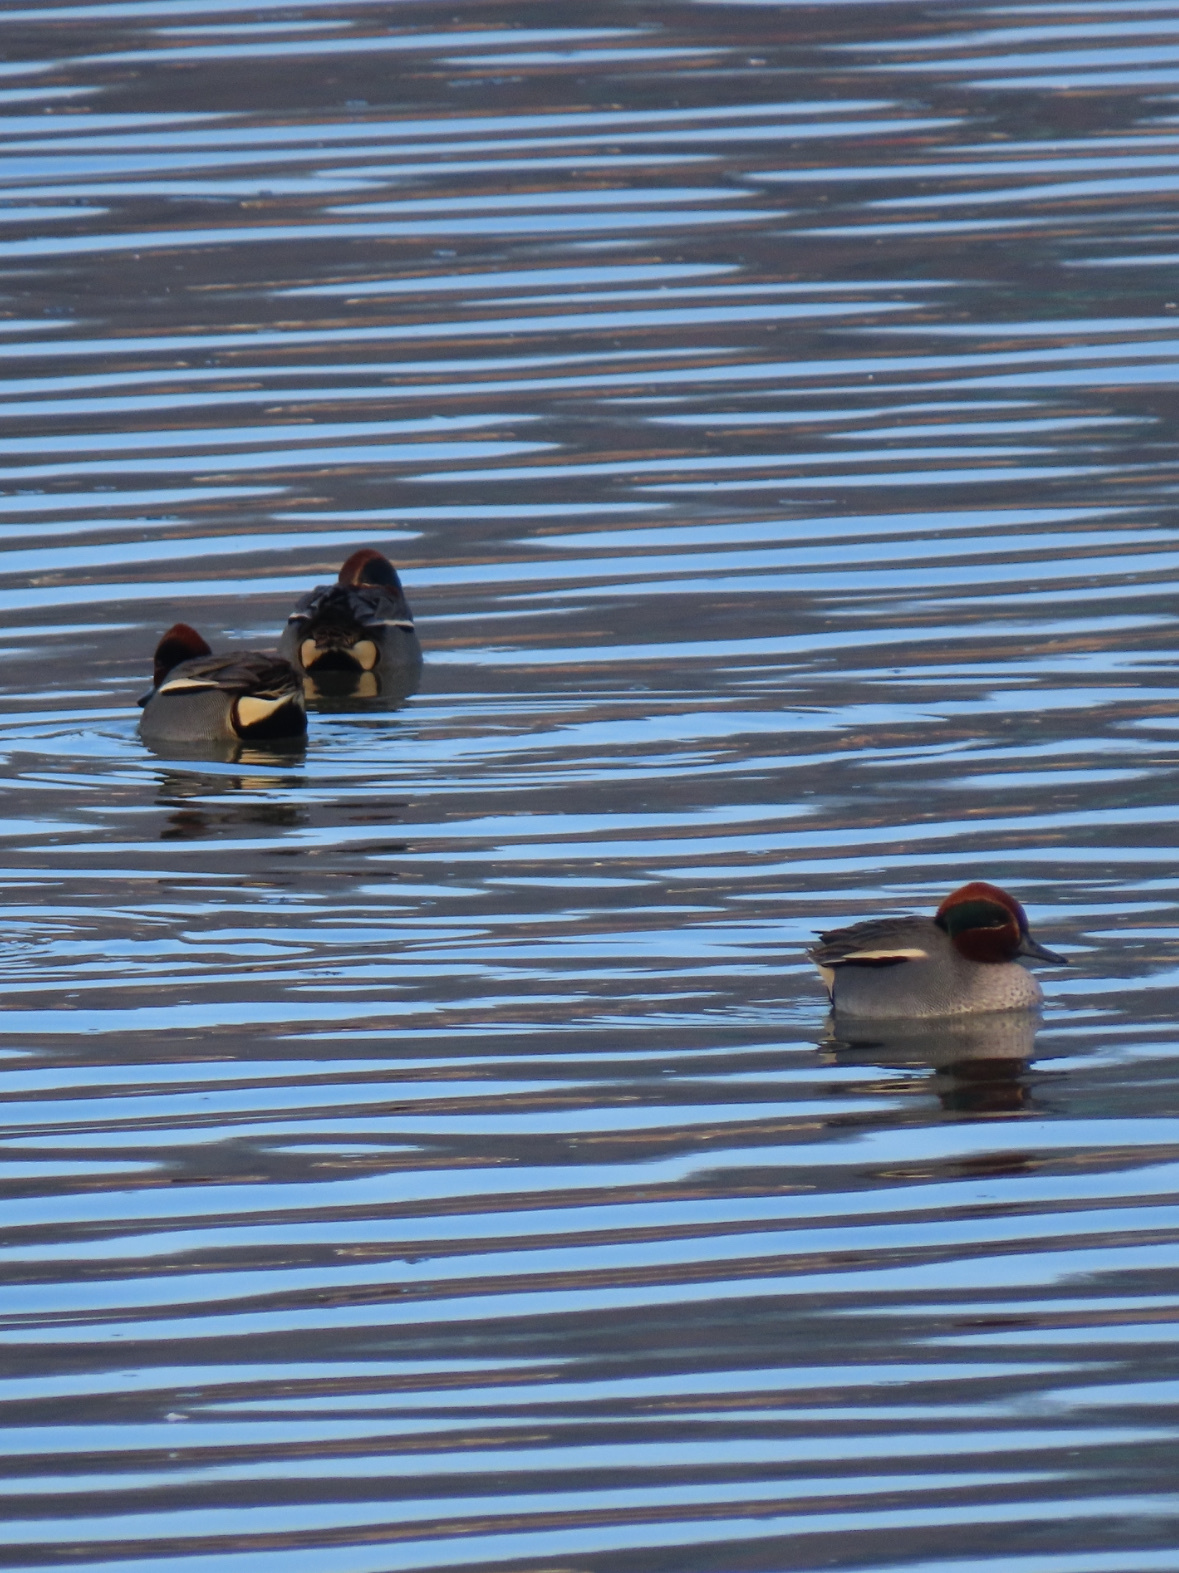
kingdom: Animalia
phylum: Chordata
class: Aves
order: Anseriformes
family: Anatidae
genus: Anas
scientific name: Anas crecca
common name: Eurasian teal
